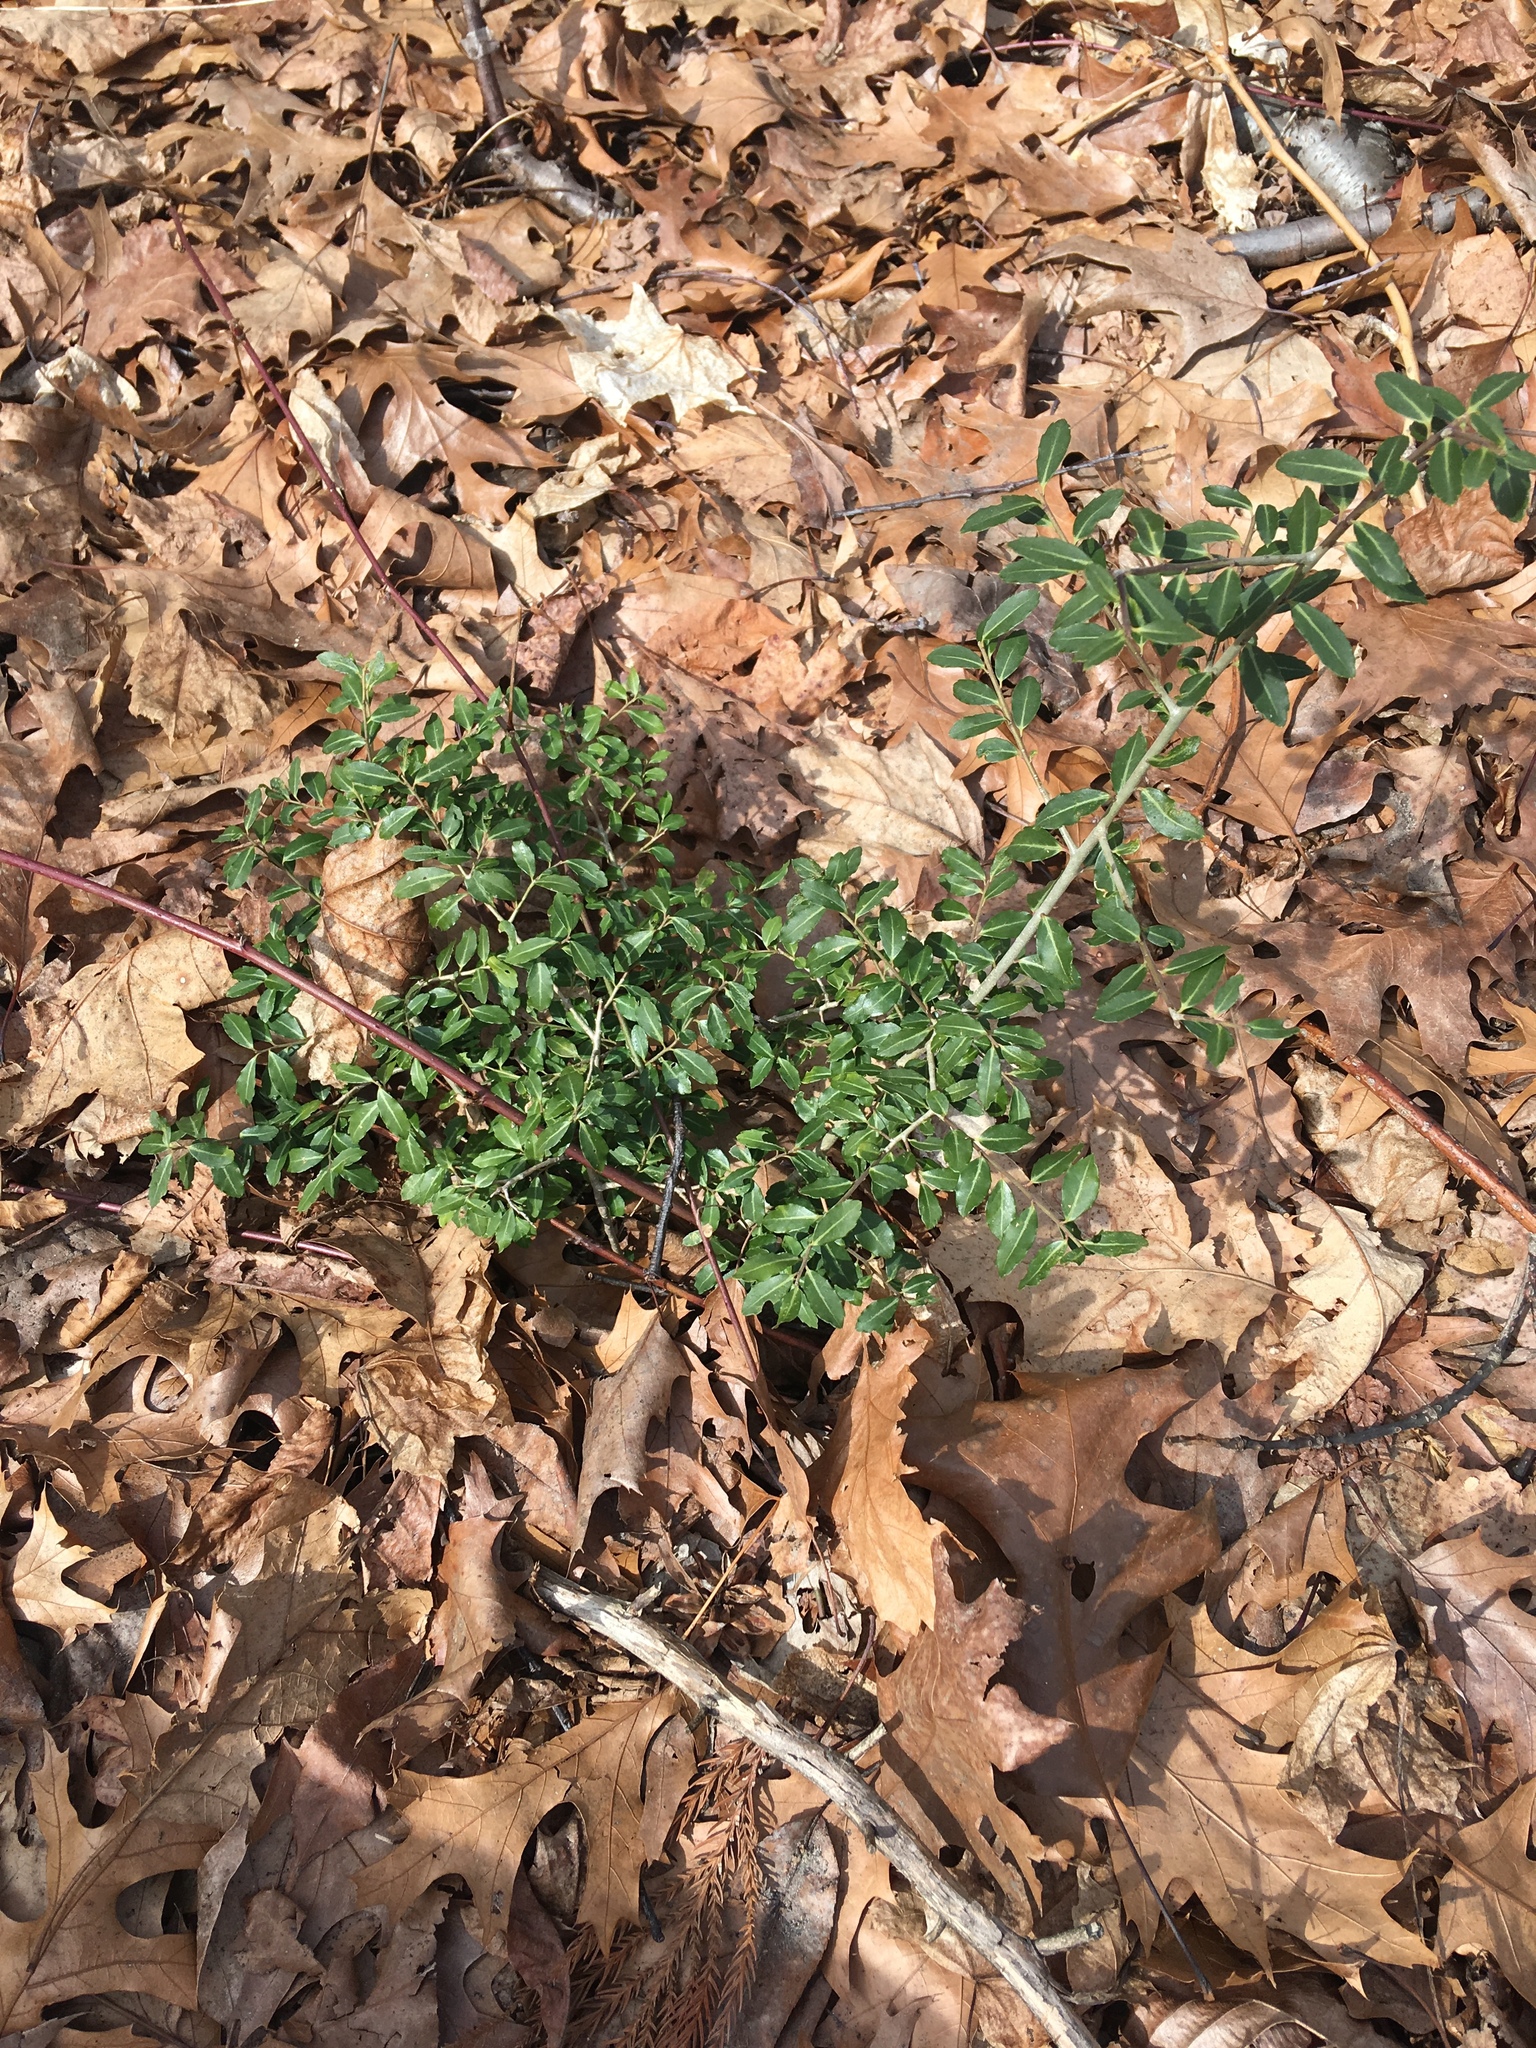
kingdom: Plantae
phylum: Tracheophyta
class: Magnoliopsida
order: Aquifoliales
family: Aquifoliaceae
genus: Ilex
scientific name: Ilex crenata
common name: Japanese holly
